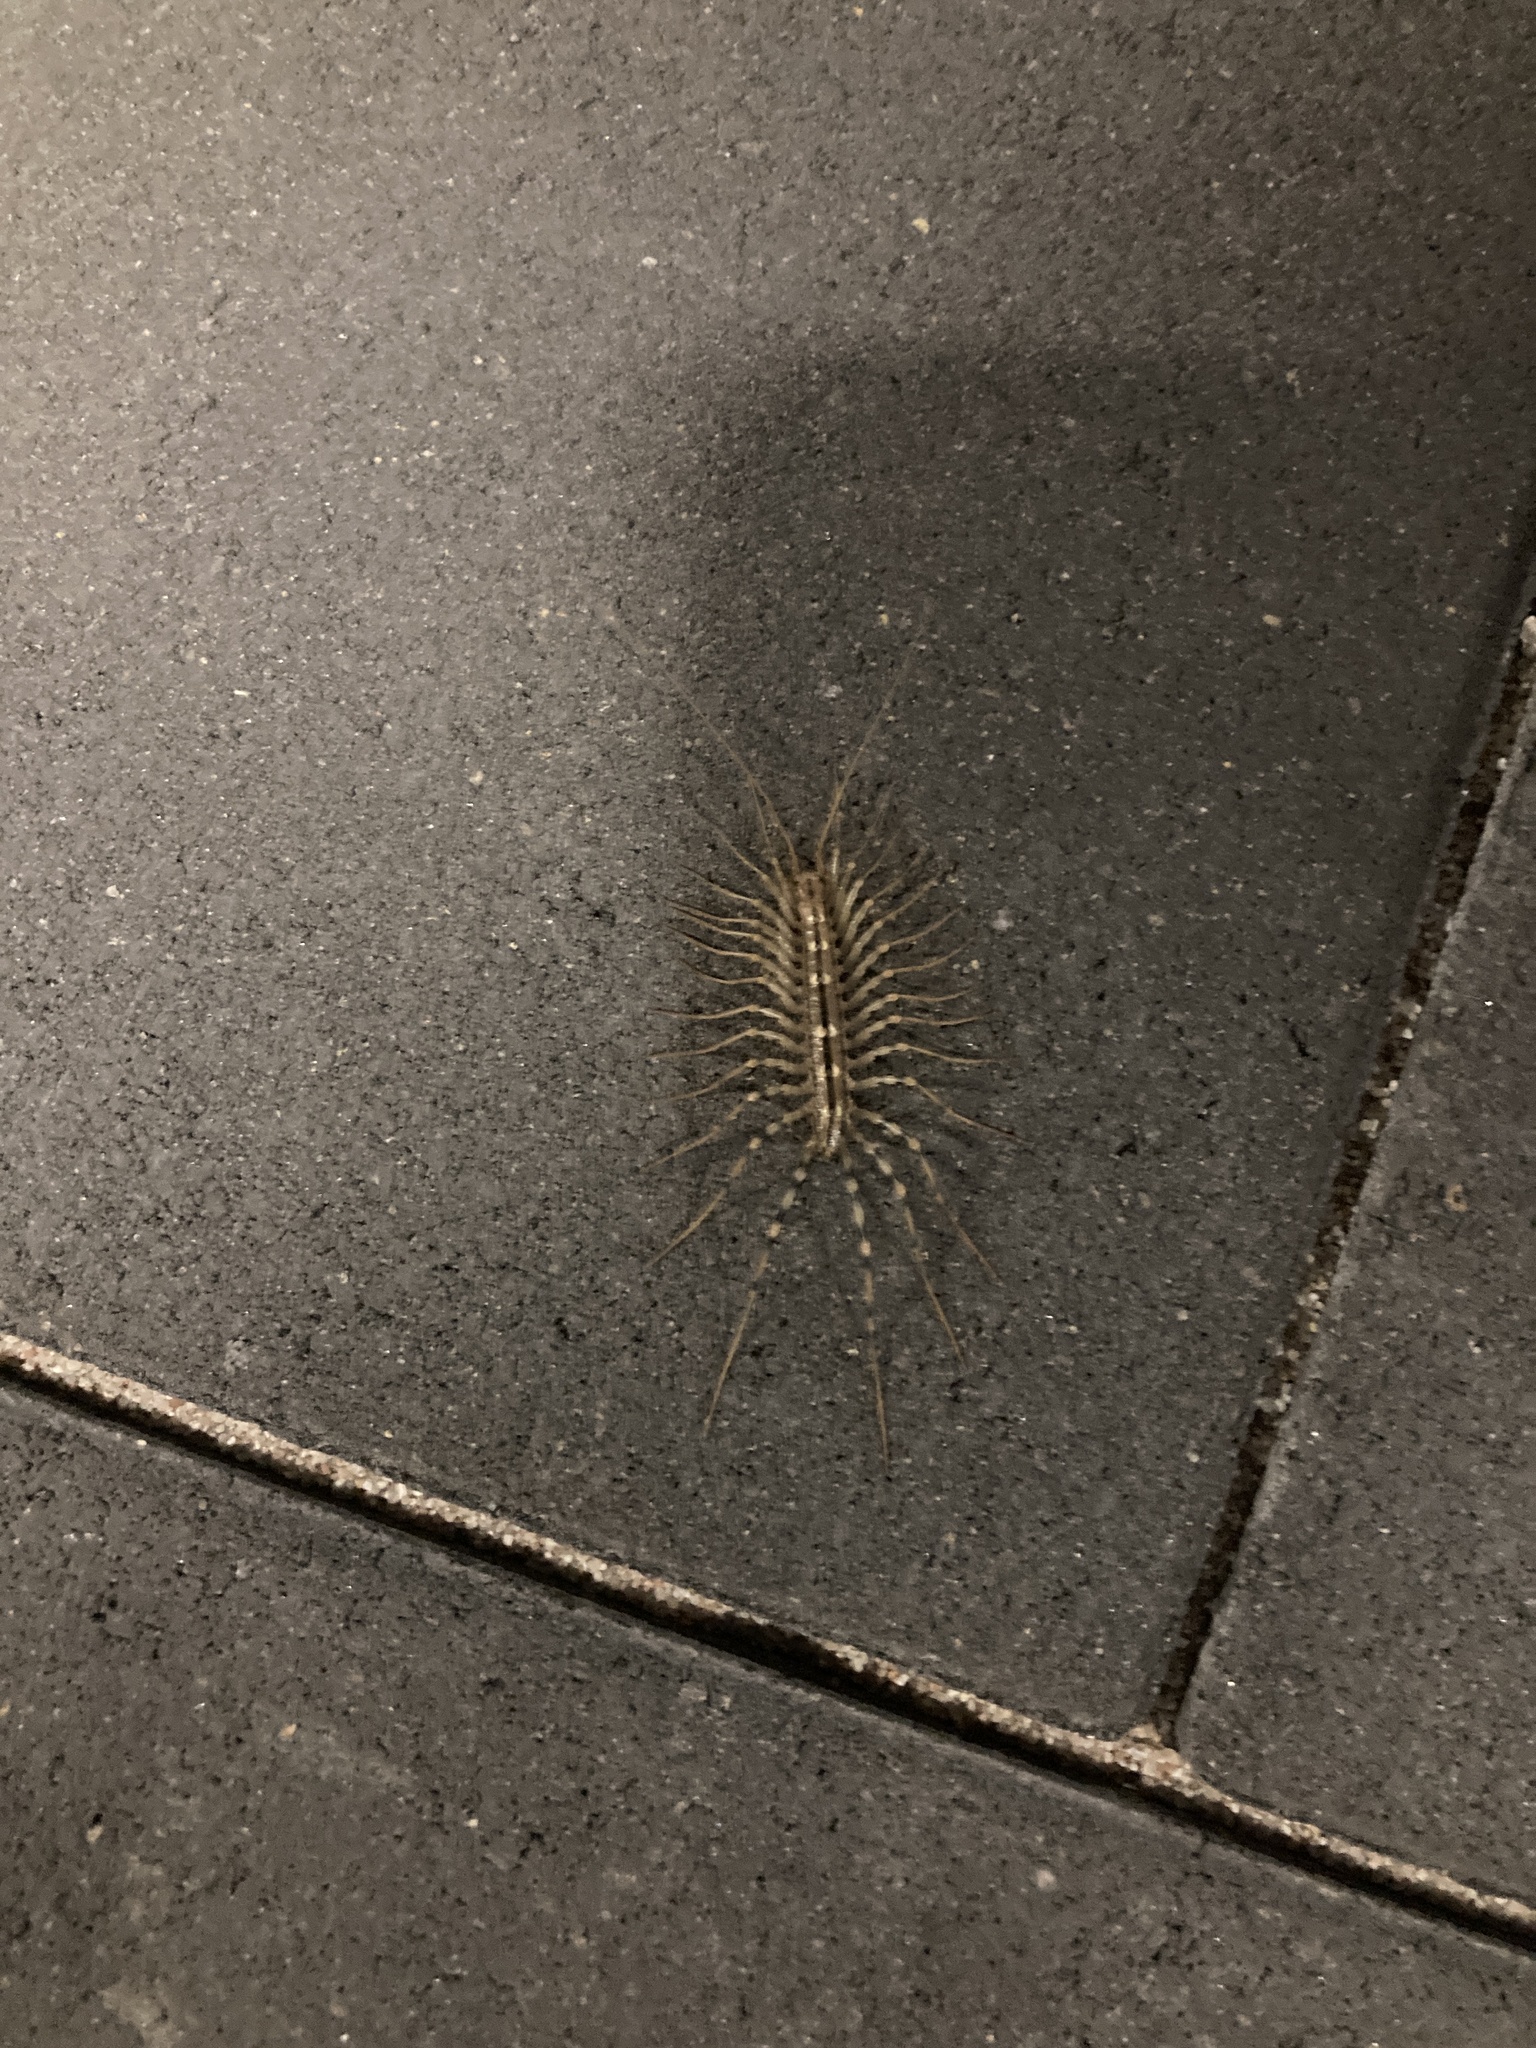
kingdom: Animalia
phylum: Arthropoda
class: Chilopoda
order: Scutigeromorpha
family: Scutigeridae
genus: Scutigera
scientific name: Scutigera coleoptrata
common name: House centipede
